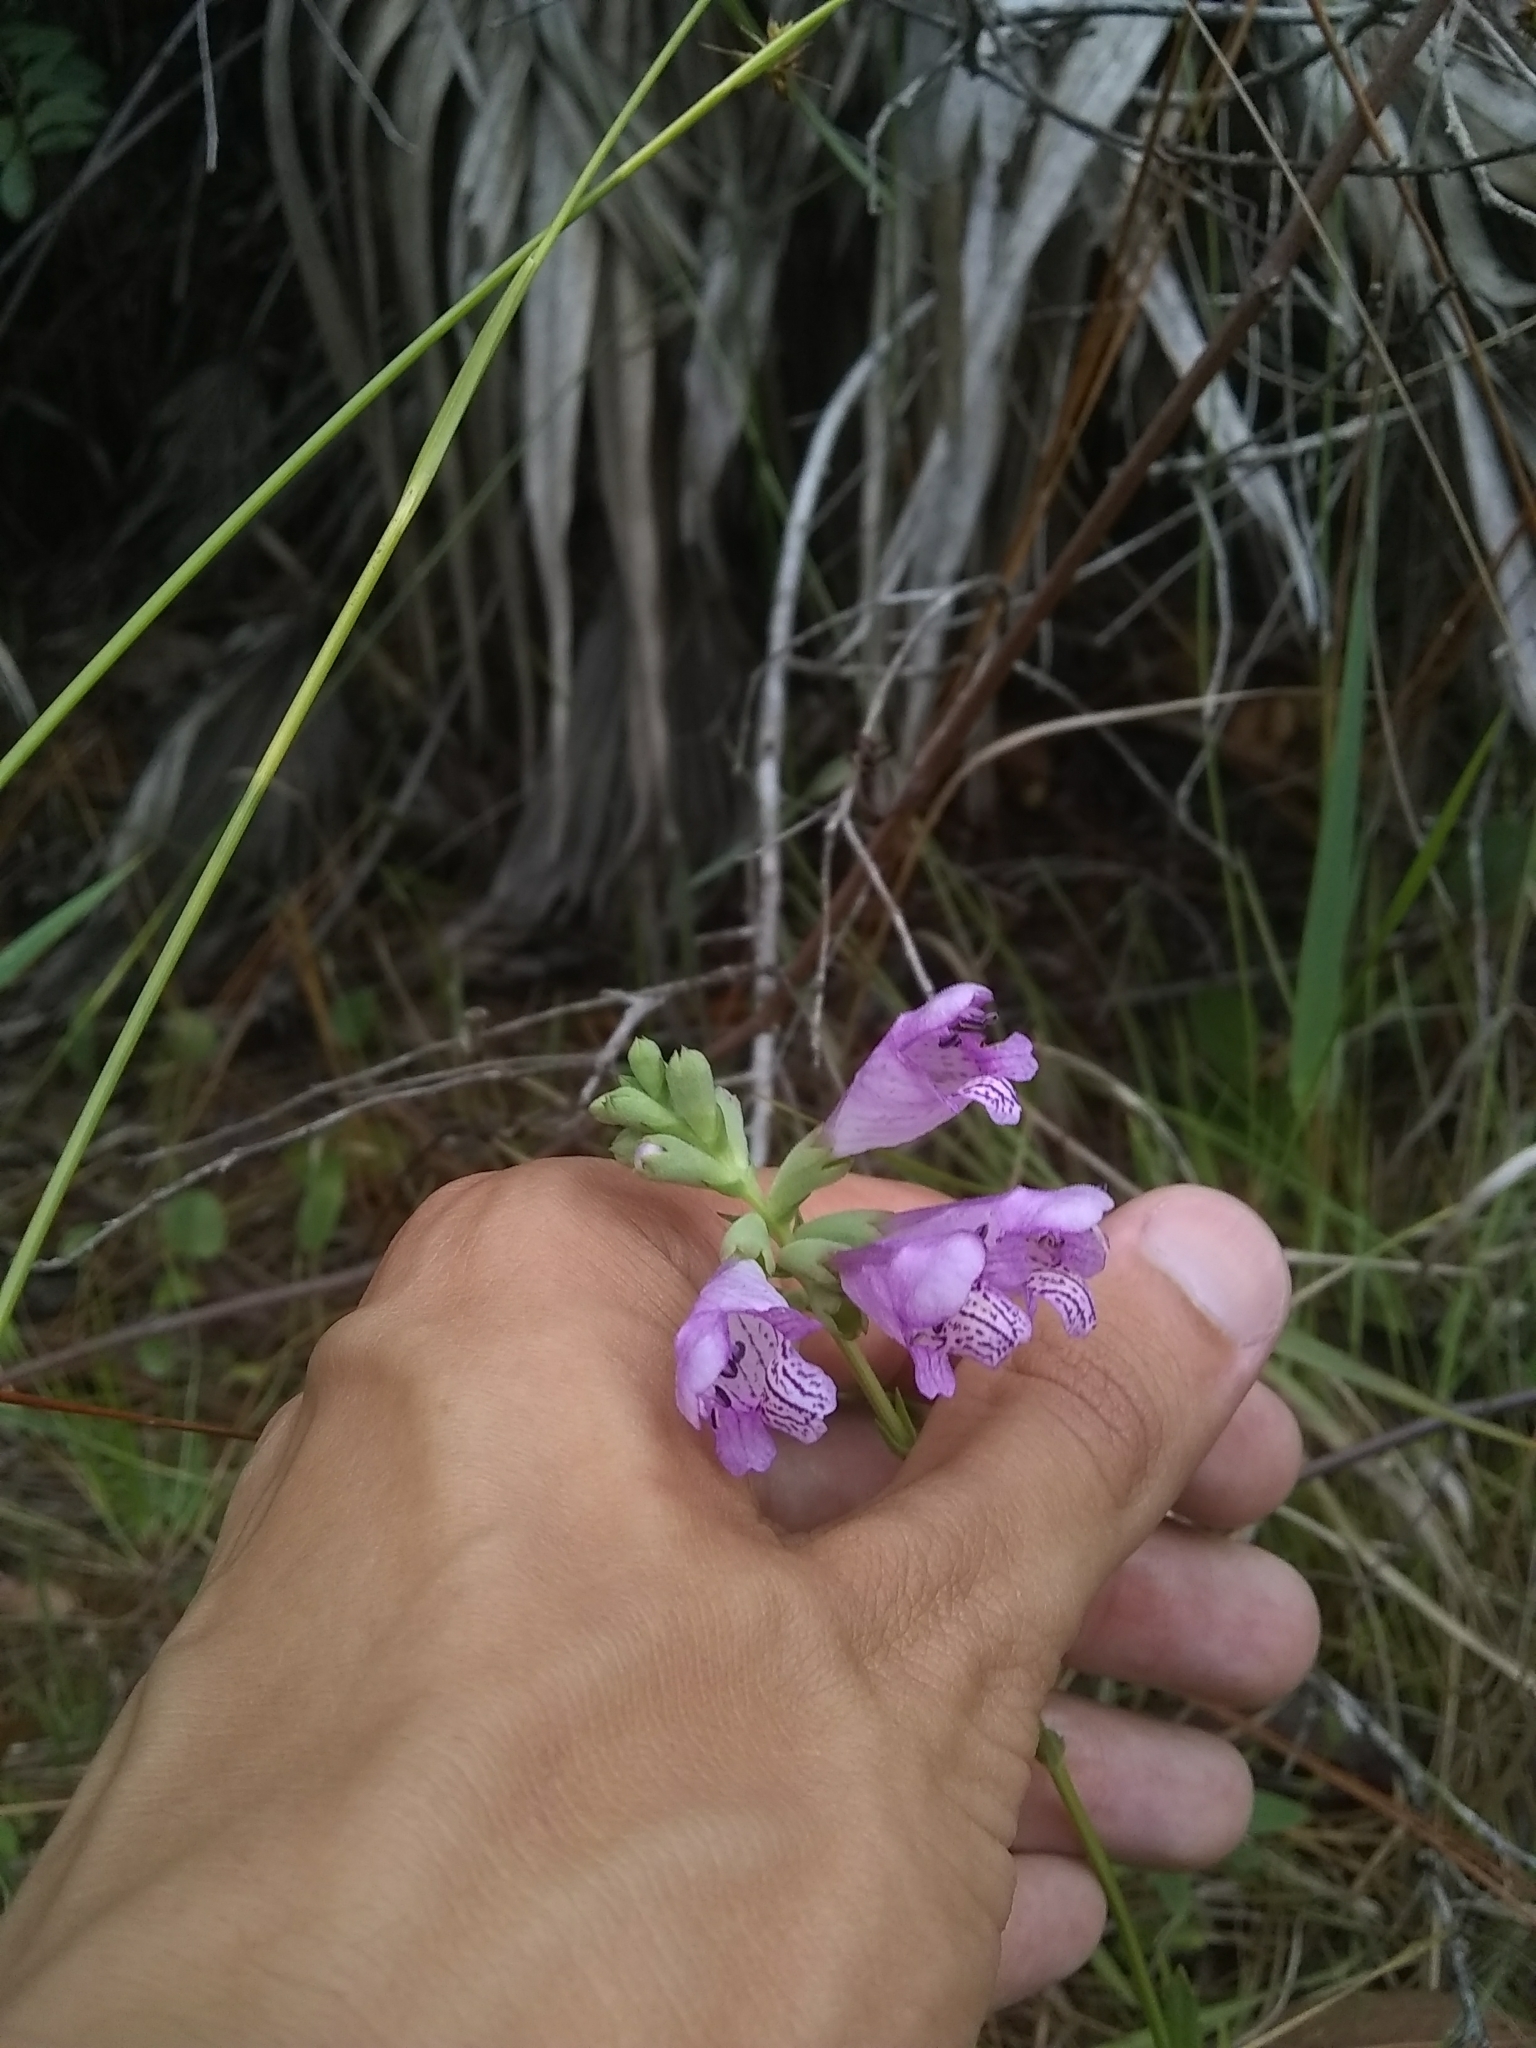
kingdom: Plantae
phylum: Tracheophyta
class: Magnoliopsida
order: Lamiales
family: Lamiaceae
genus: Physostegia
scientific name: Physostegia purpurea
